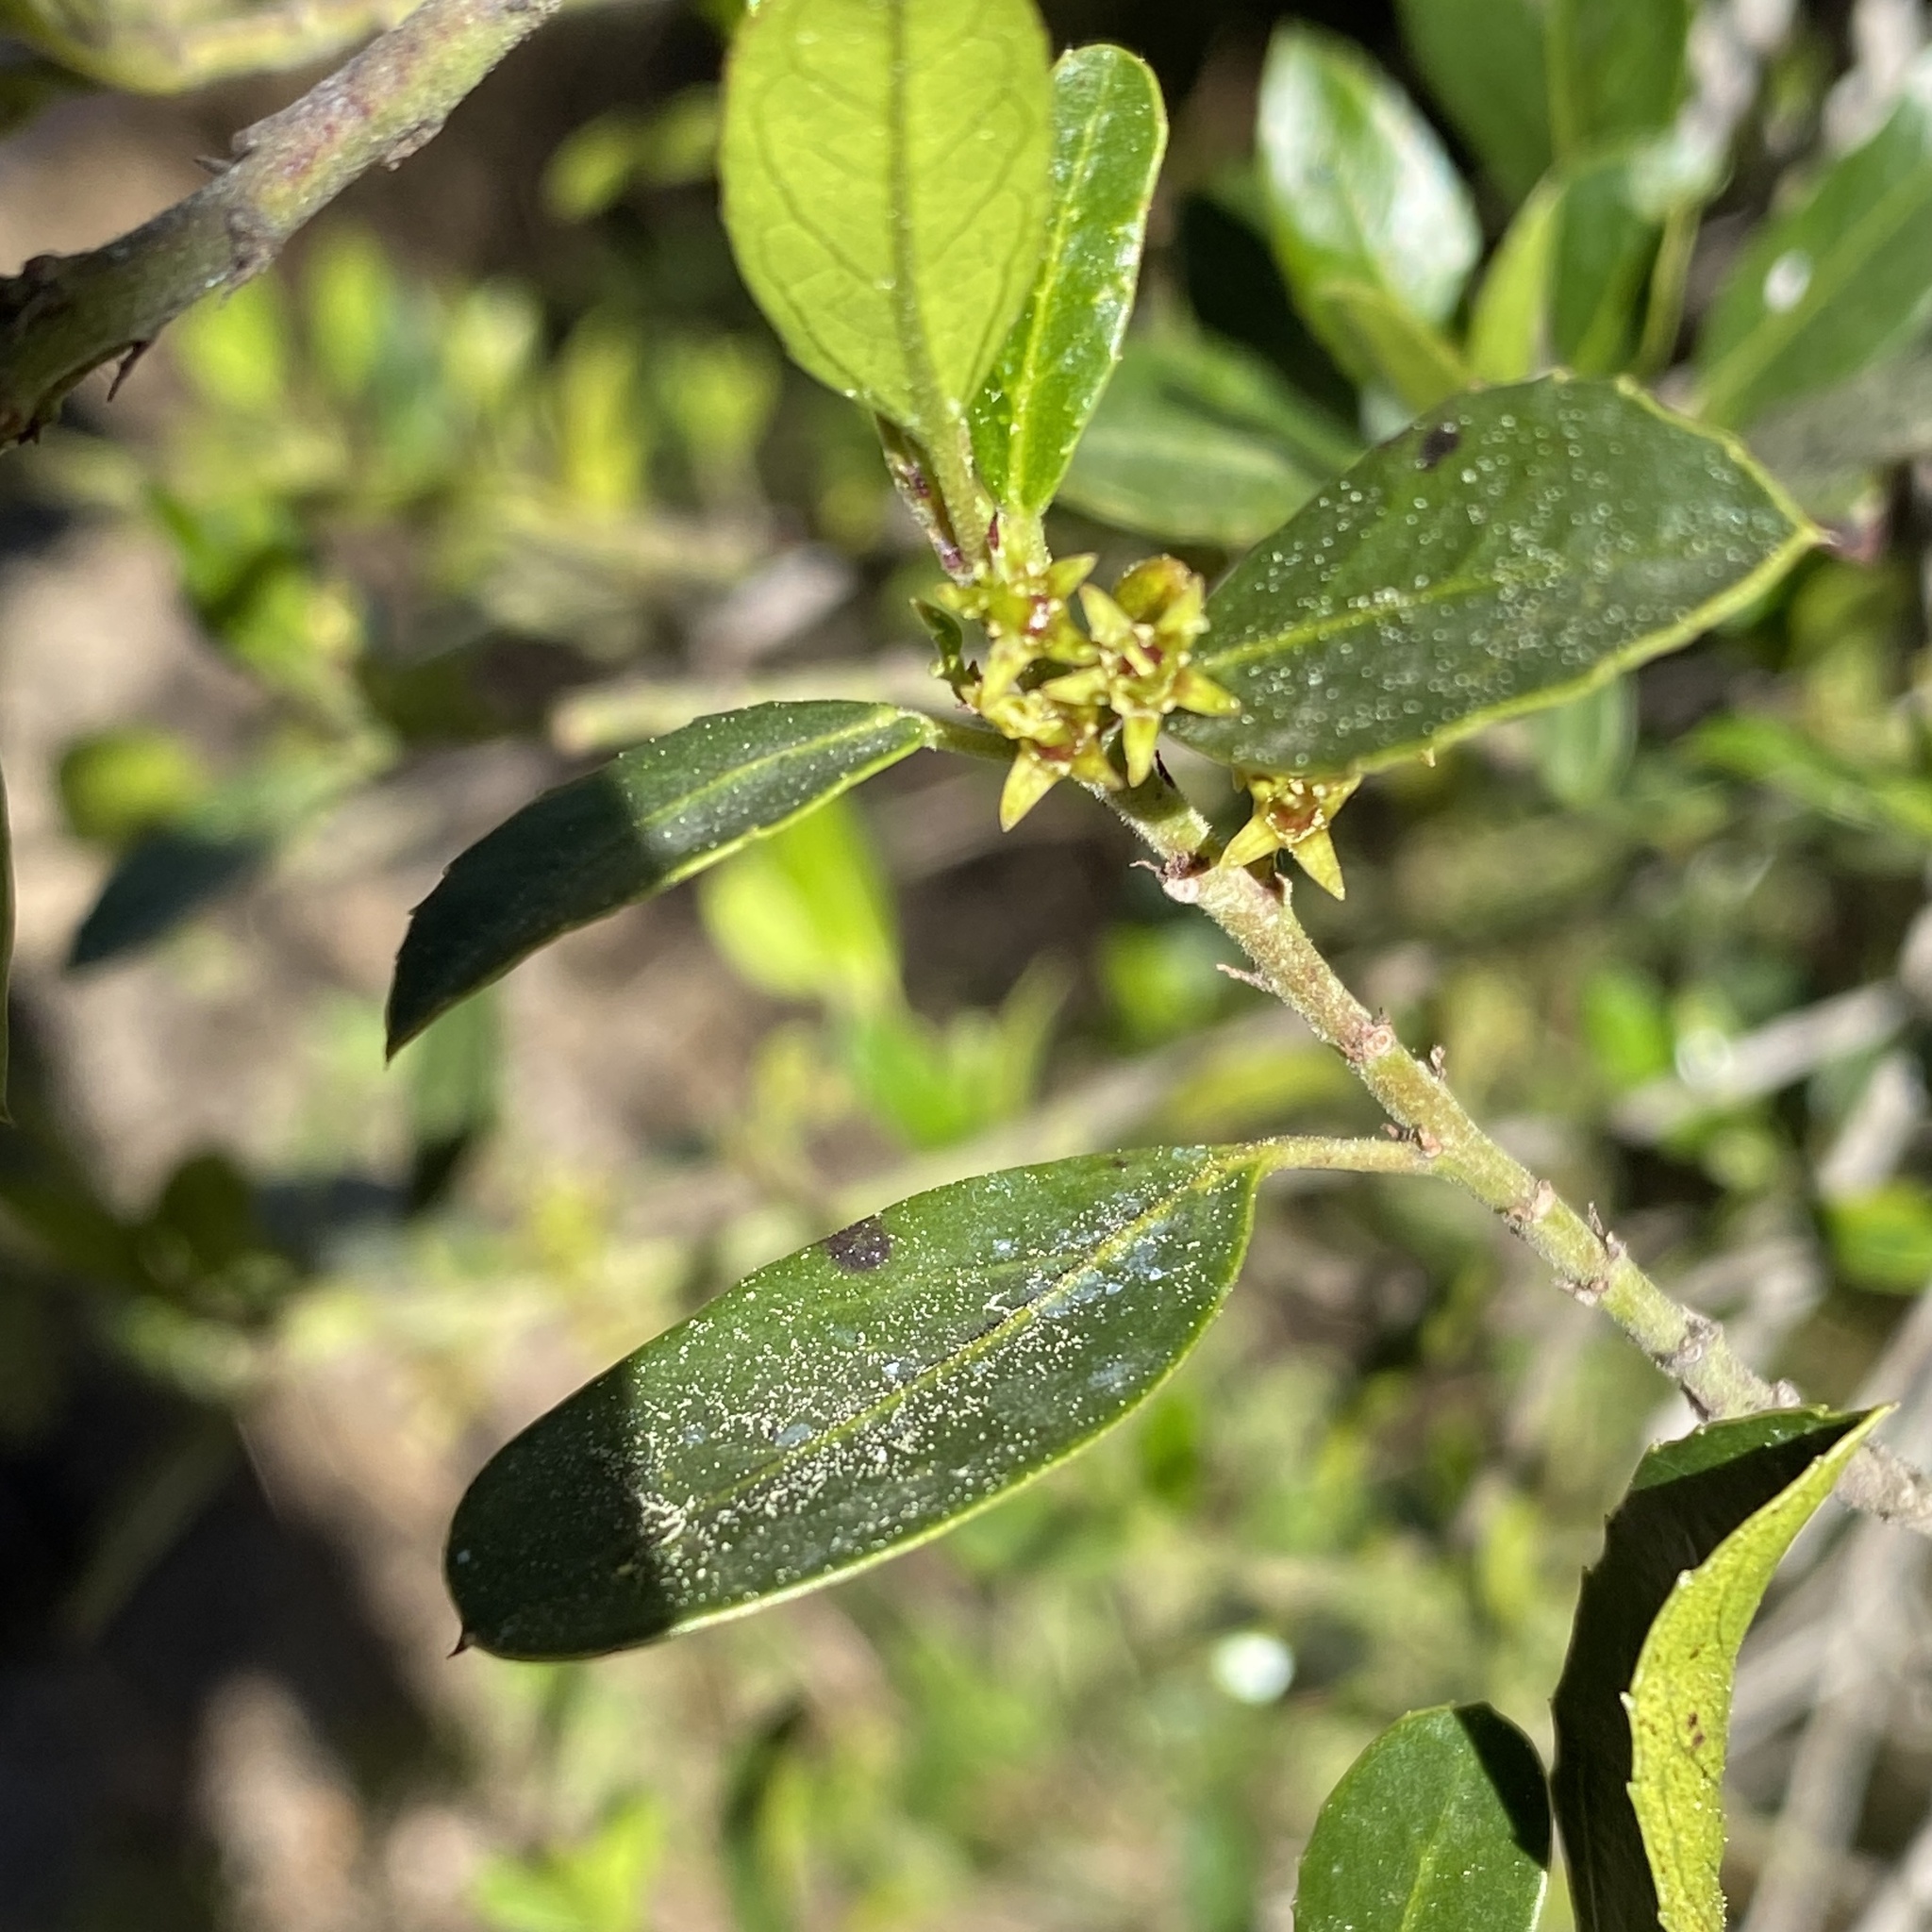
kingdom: Plantae
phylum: Tracheophyta
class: Magnoliopsida
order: Rosales
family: Rhamnaceae
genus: Rhamnus
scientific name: Rhamnus alaternus
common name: Mediterranean buckthorn
